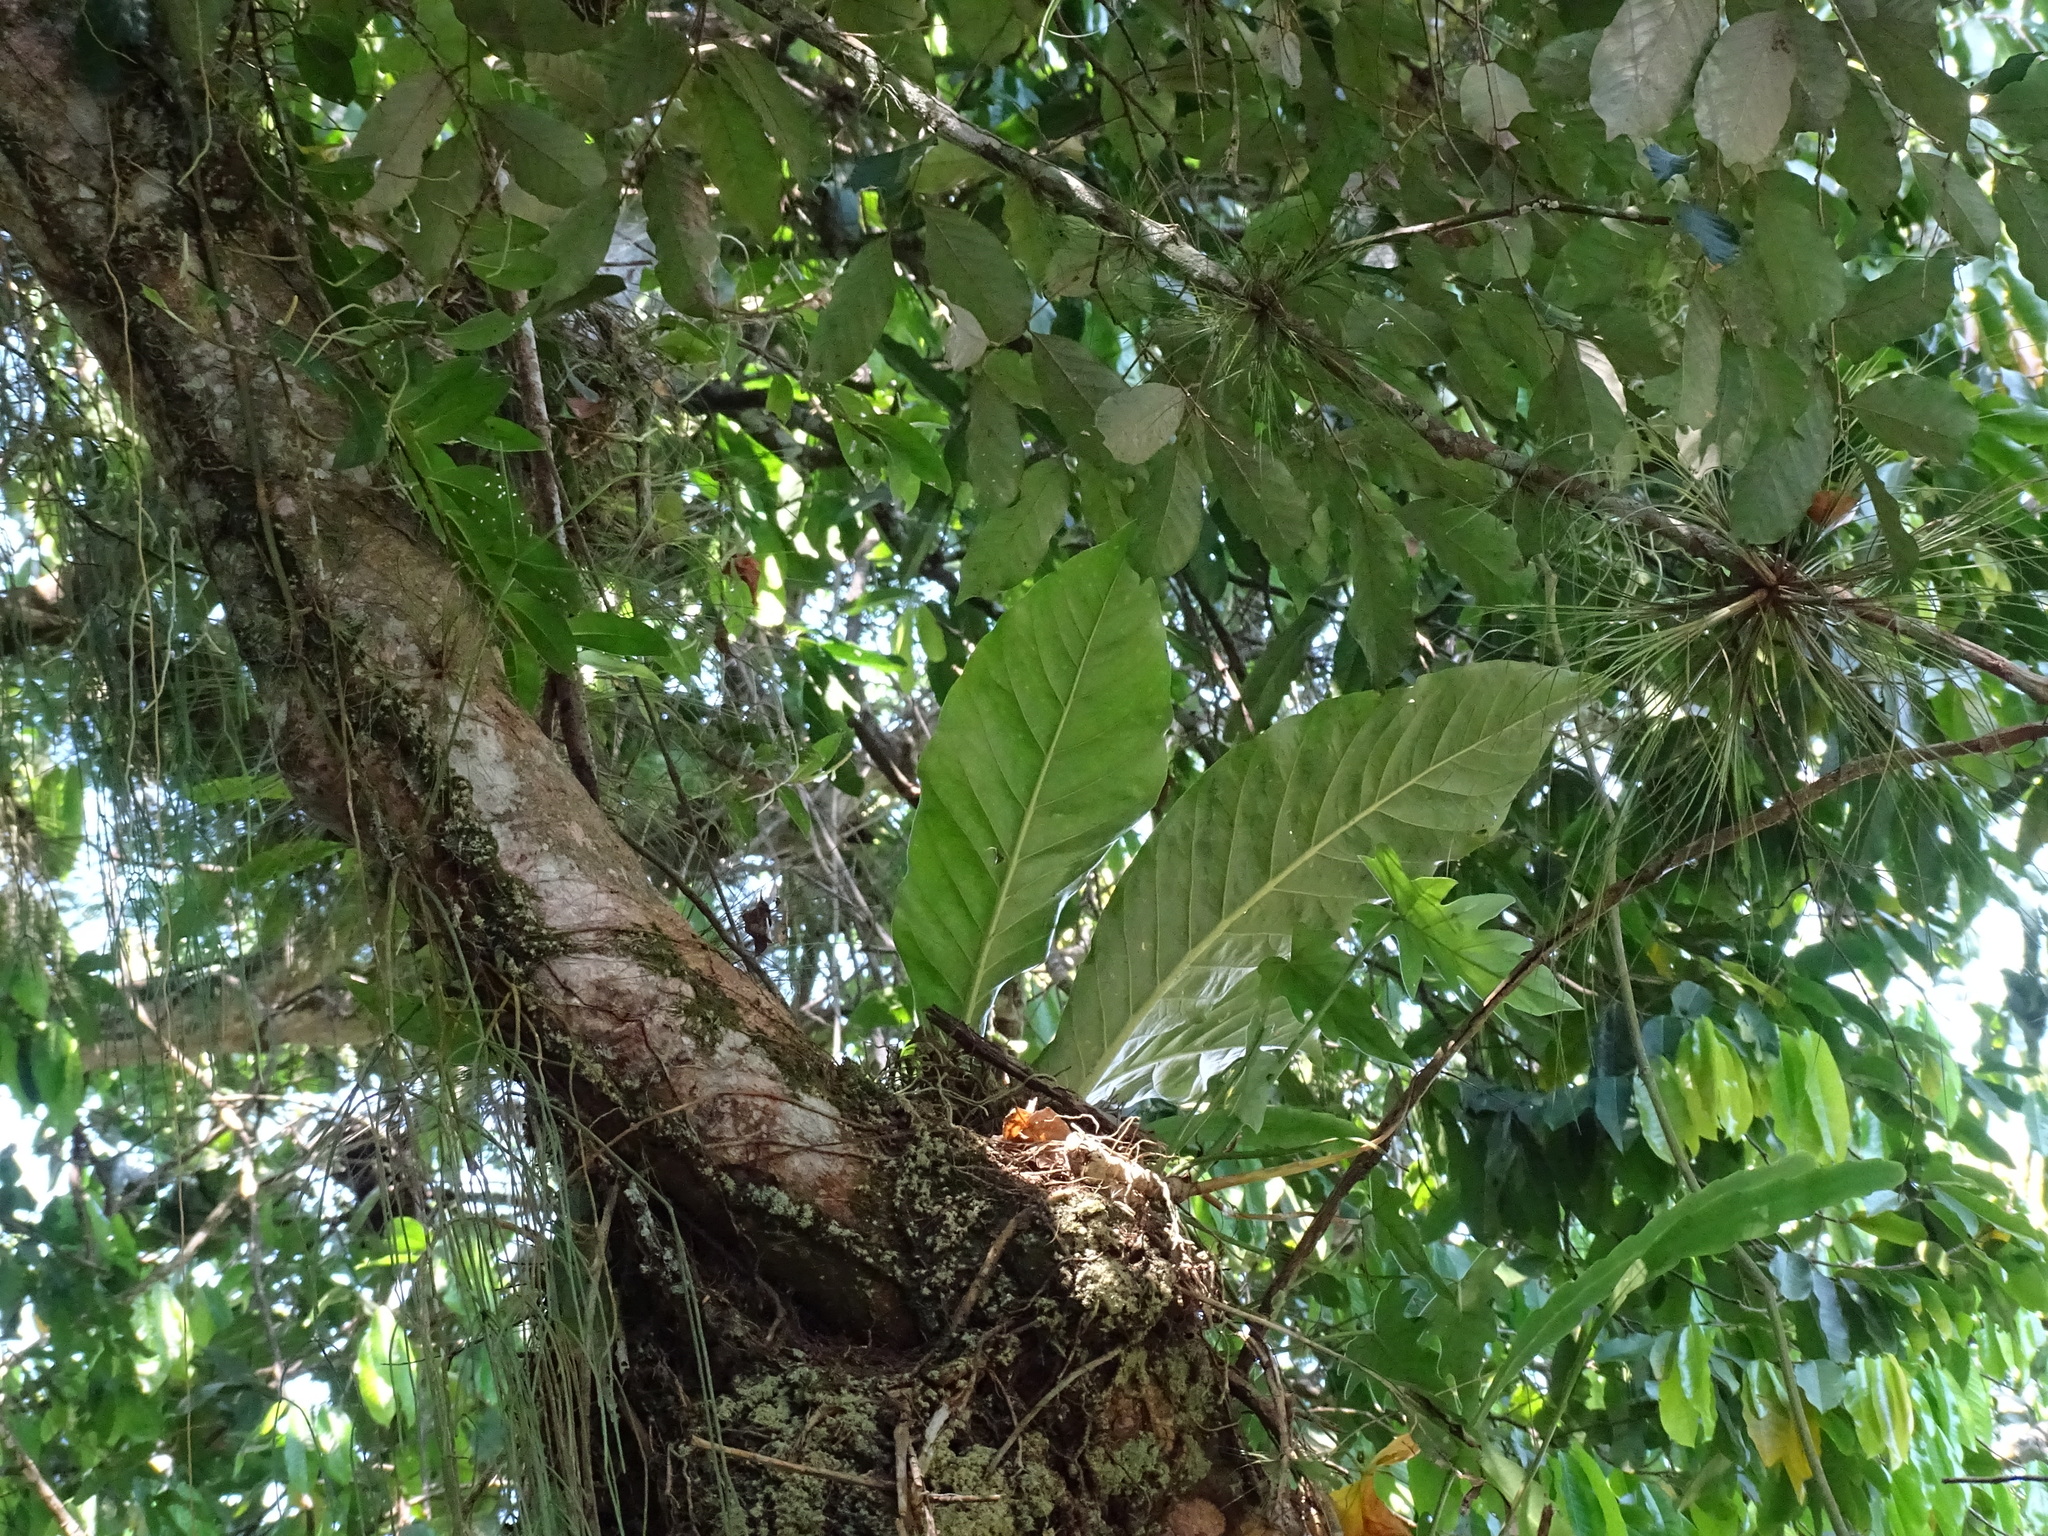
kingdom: Plantae
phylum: Tracheophyta
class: Liliopsida
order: Alismatales
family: Araceae
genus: Anthurium
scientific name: Anthurium salvinii
